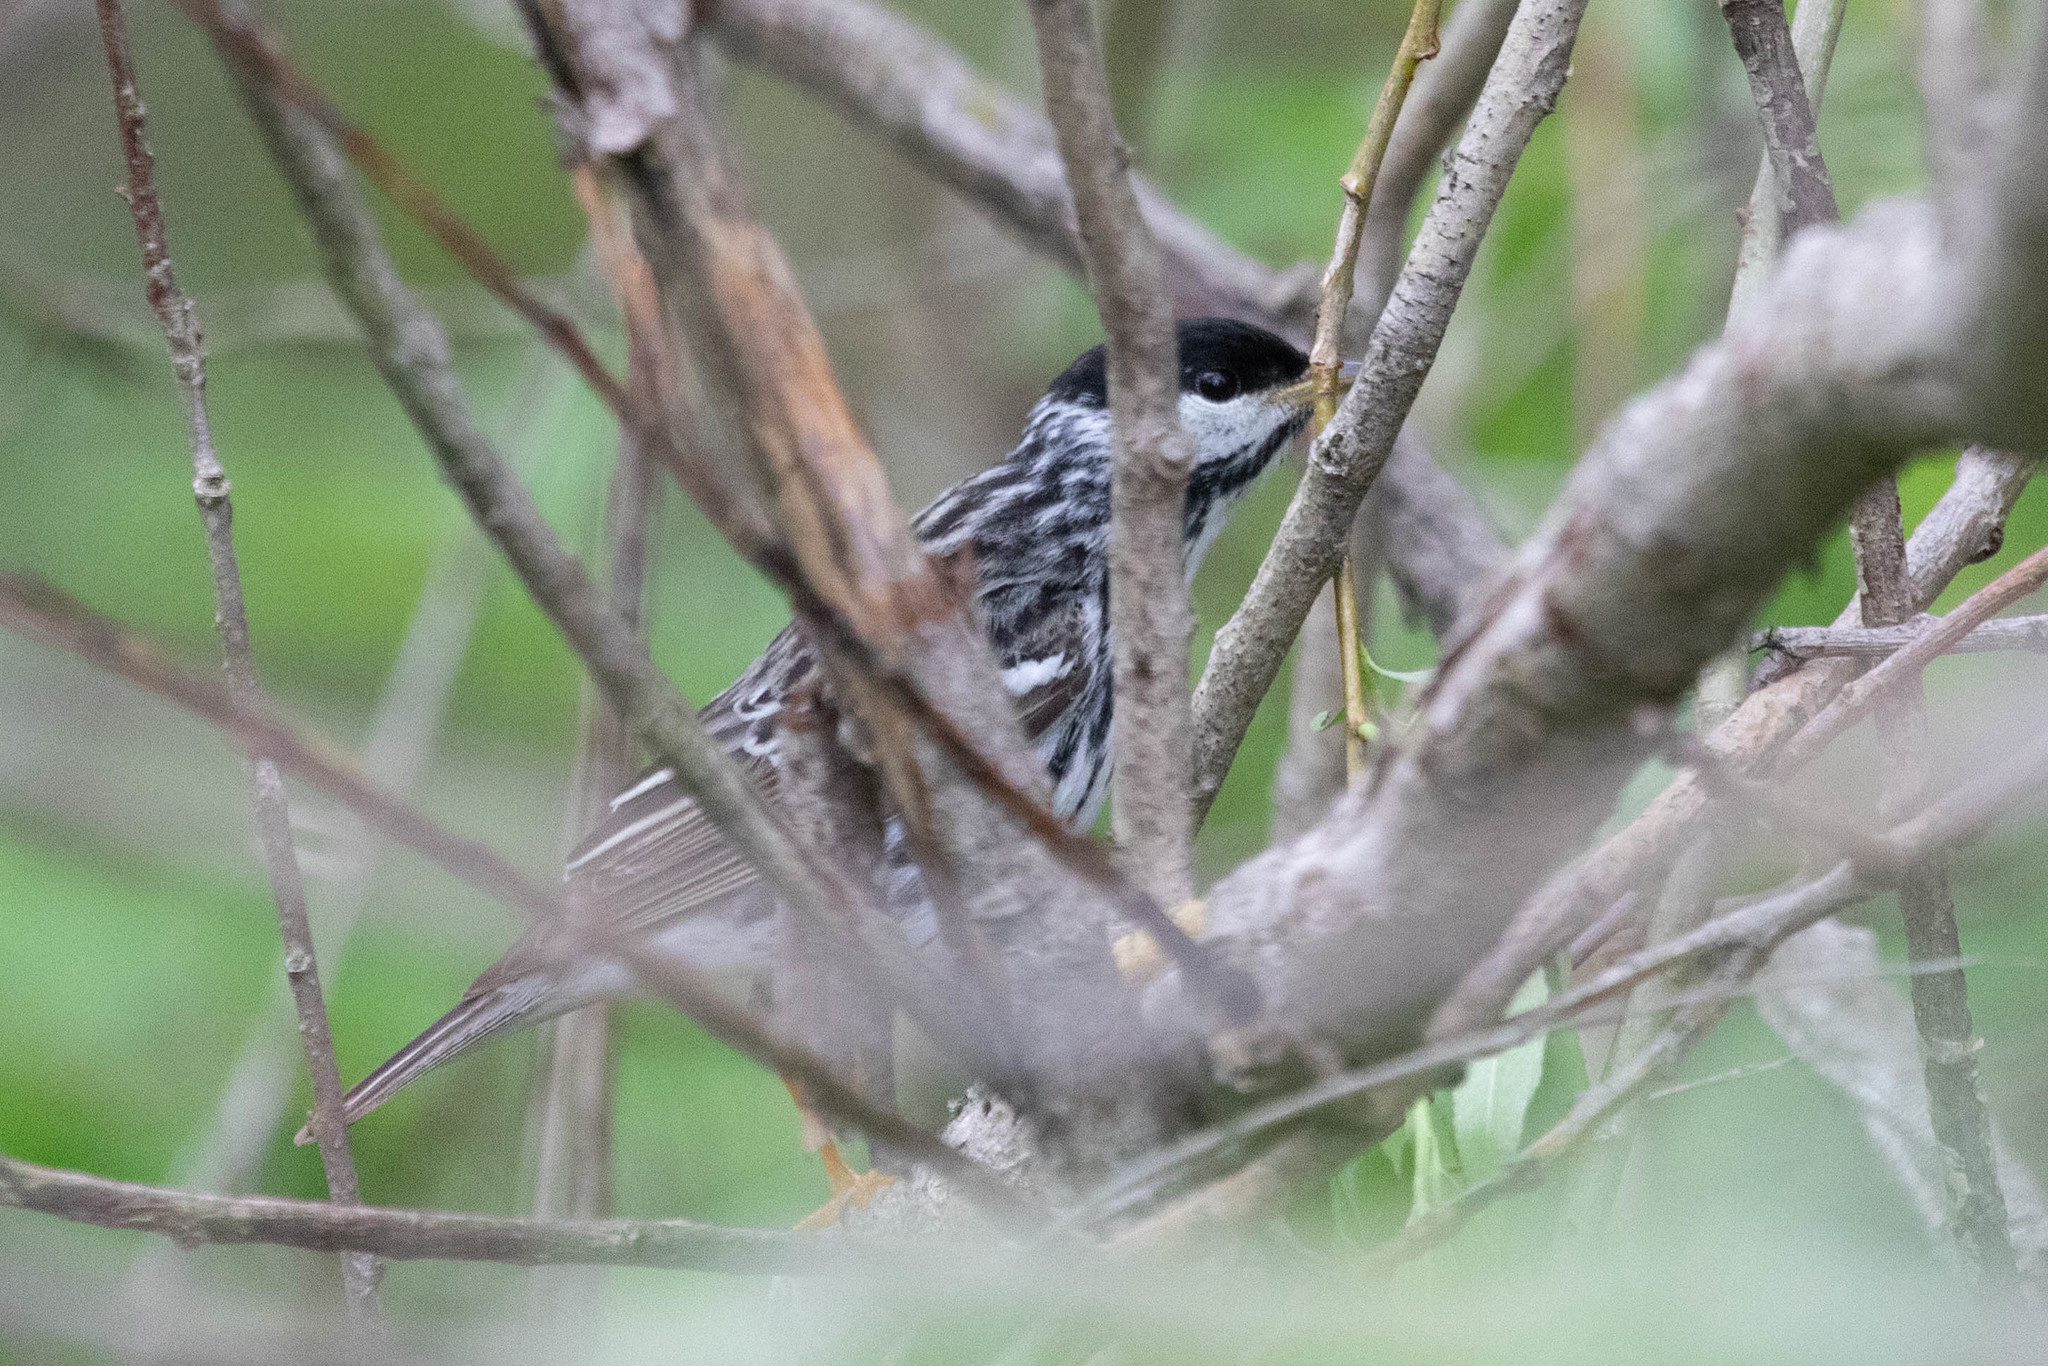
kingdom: Animalia
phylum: Chordata
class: Aves
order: Passeriformes
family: Parulidae
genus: Setophaga
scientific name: Setophaga striata
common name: Blackpoll warbler
